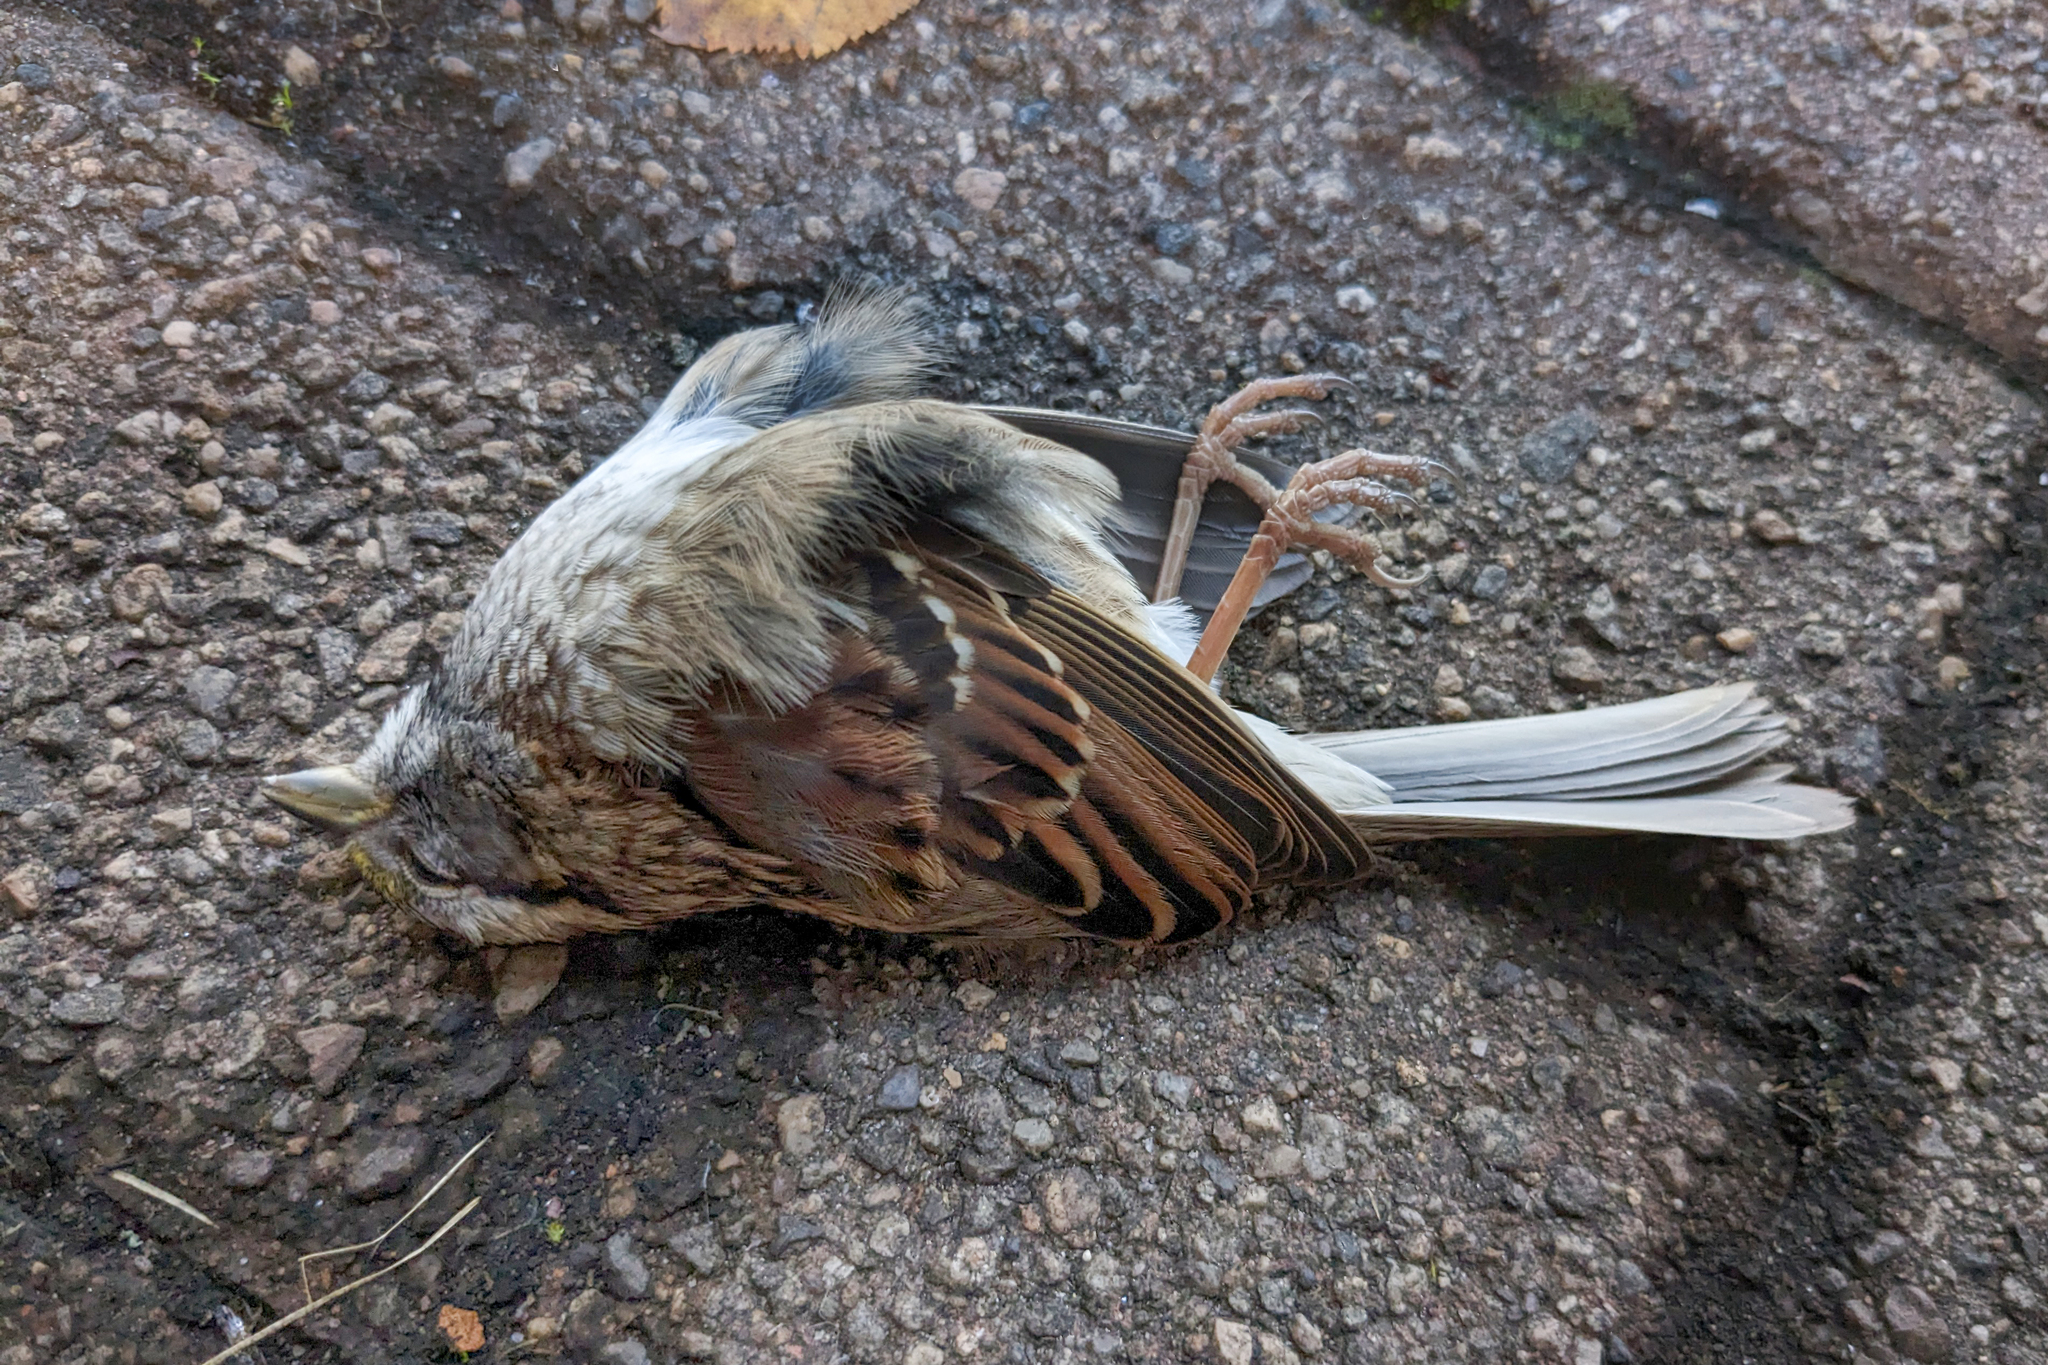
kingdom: Animalia
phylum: Chordata
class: Aves
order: Passeriformes
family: Passerellidae
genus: Zonotrichia
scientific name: Zonotrichia albicollis
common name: White-throated sparrow
